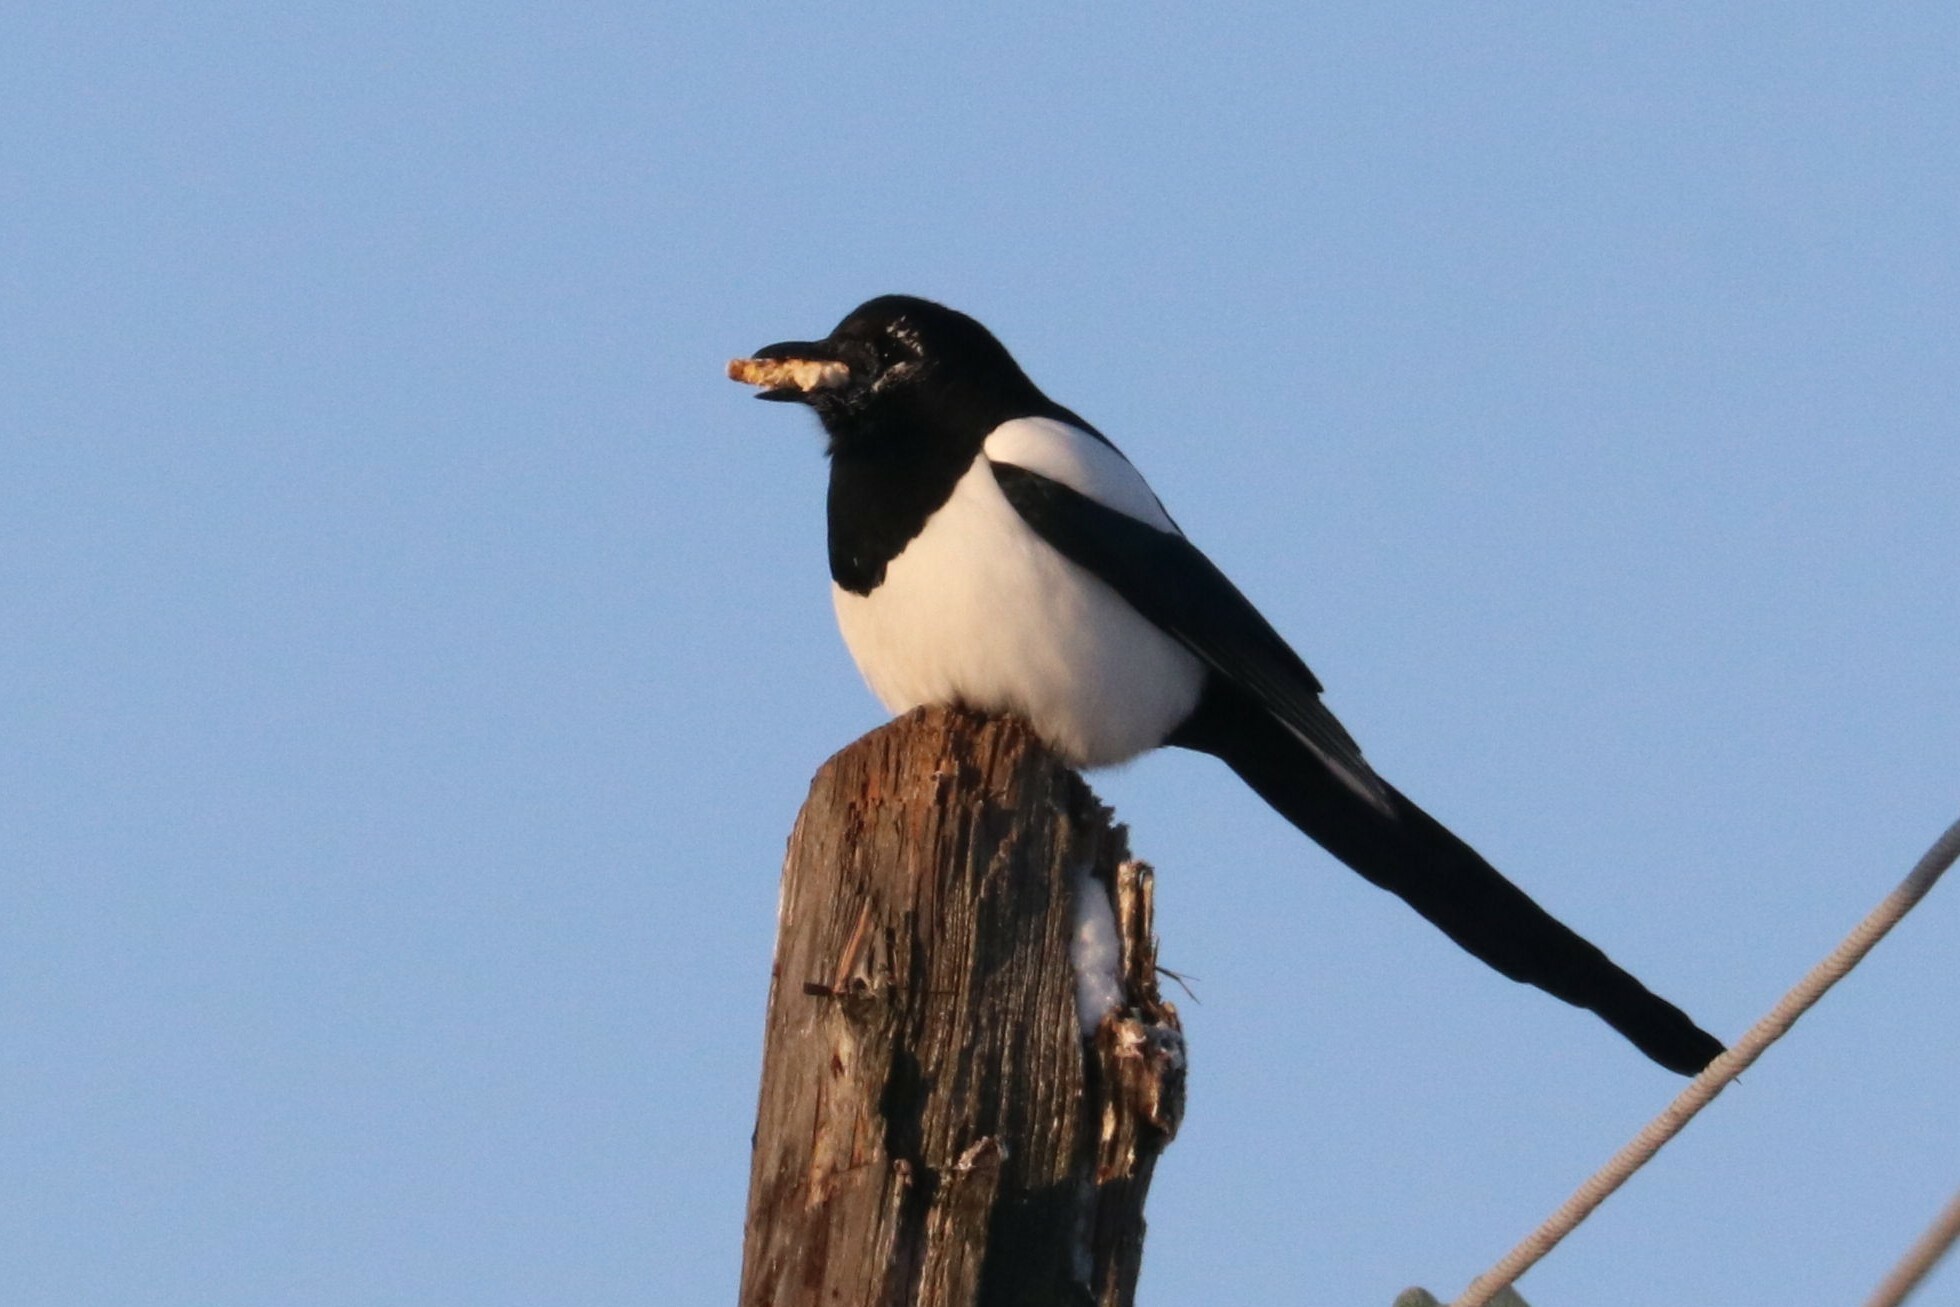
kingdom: Animalia
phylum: Chordata
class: Aves
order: Passeriformes
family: Corvidae
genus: Pica
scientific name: Pica pica
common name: Eurasian magpie
